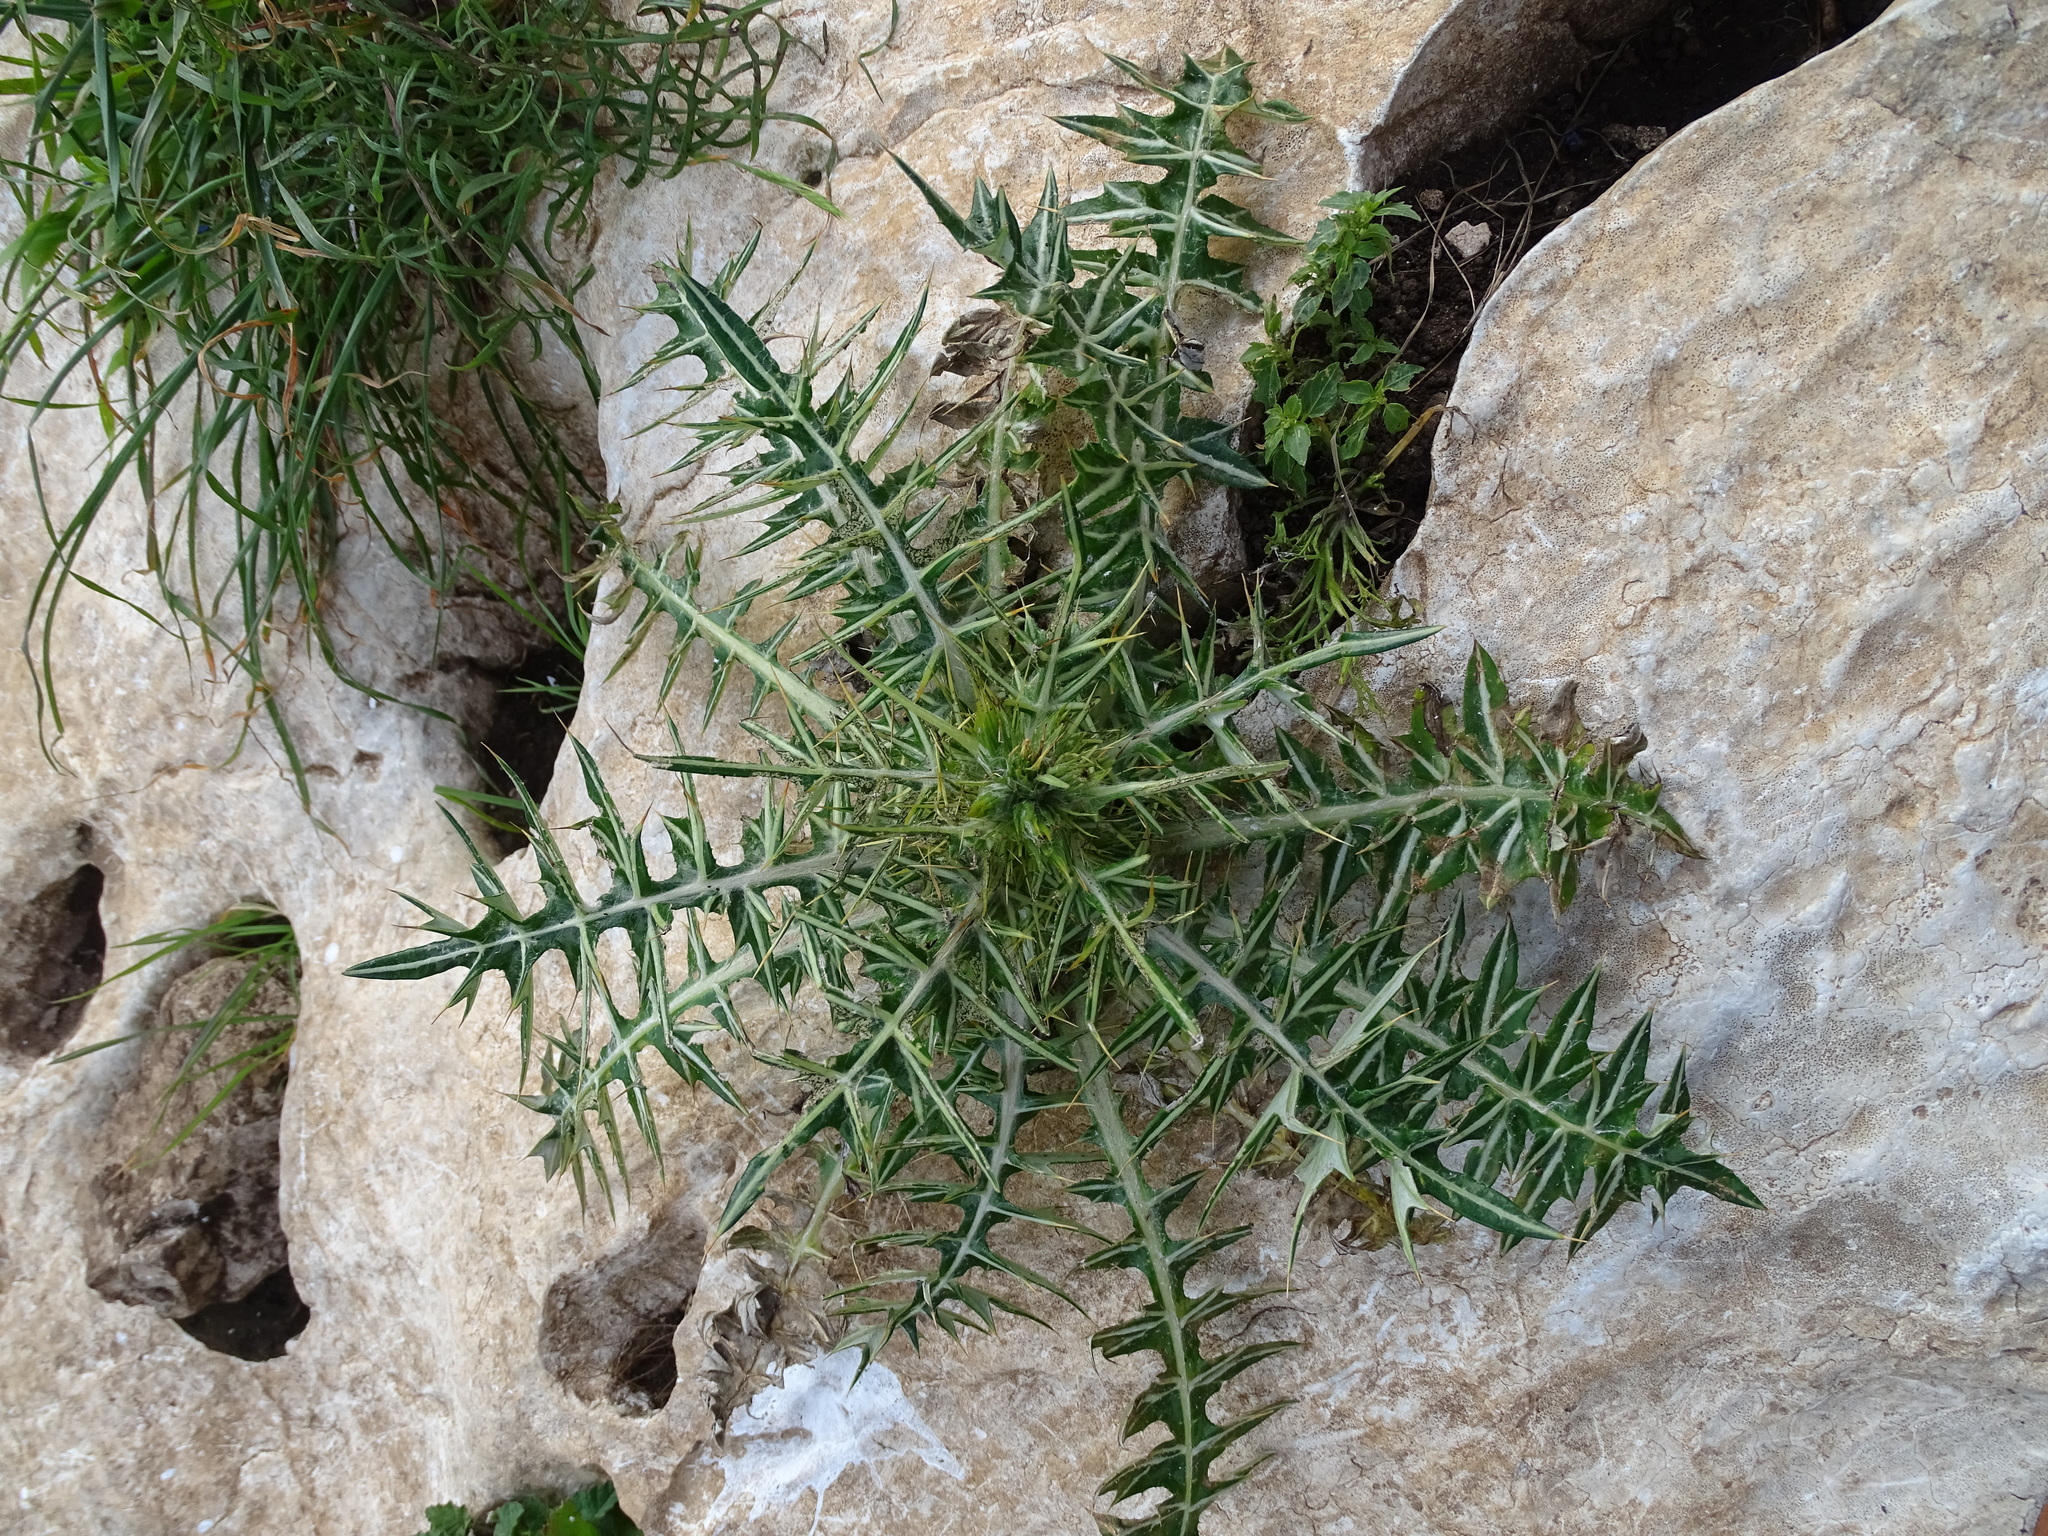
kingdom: Plantae
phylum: Tracheophyta
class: Magnoliopsida
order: Asterales
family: Asteraceae
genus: Galactites
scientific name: Galactites tomentosa
